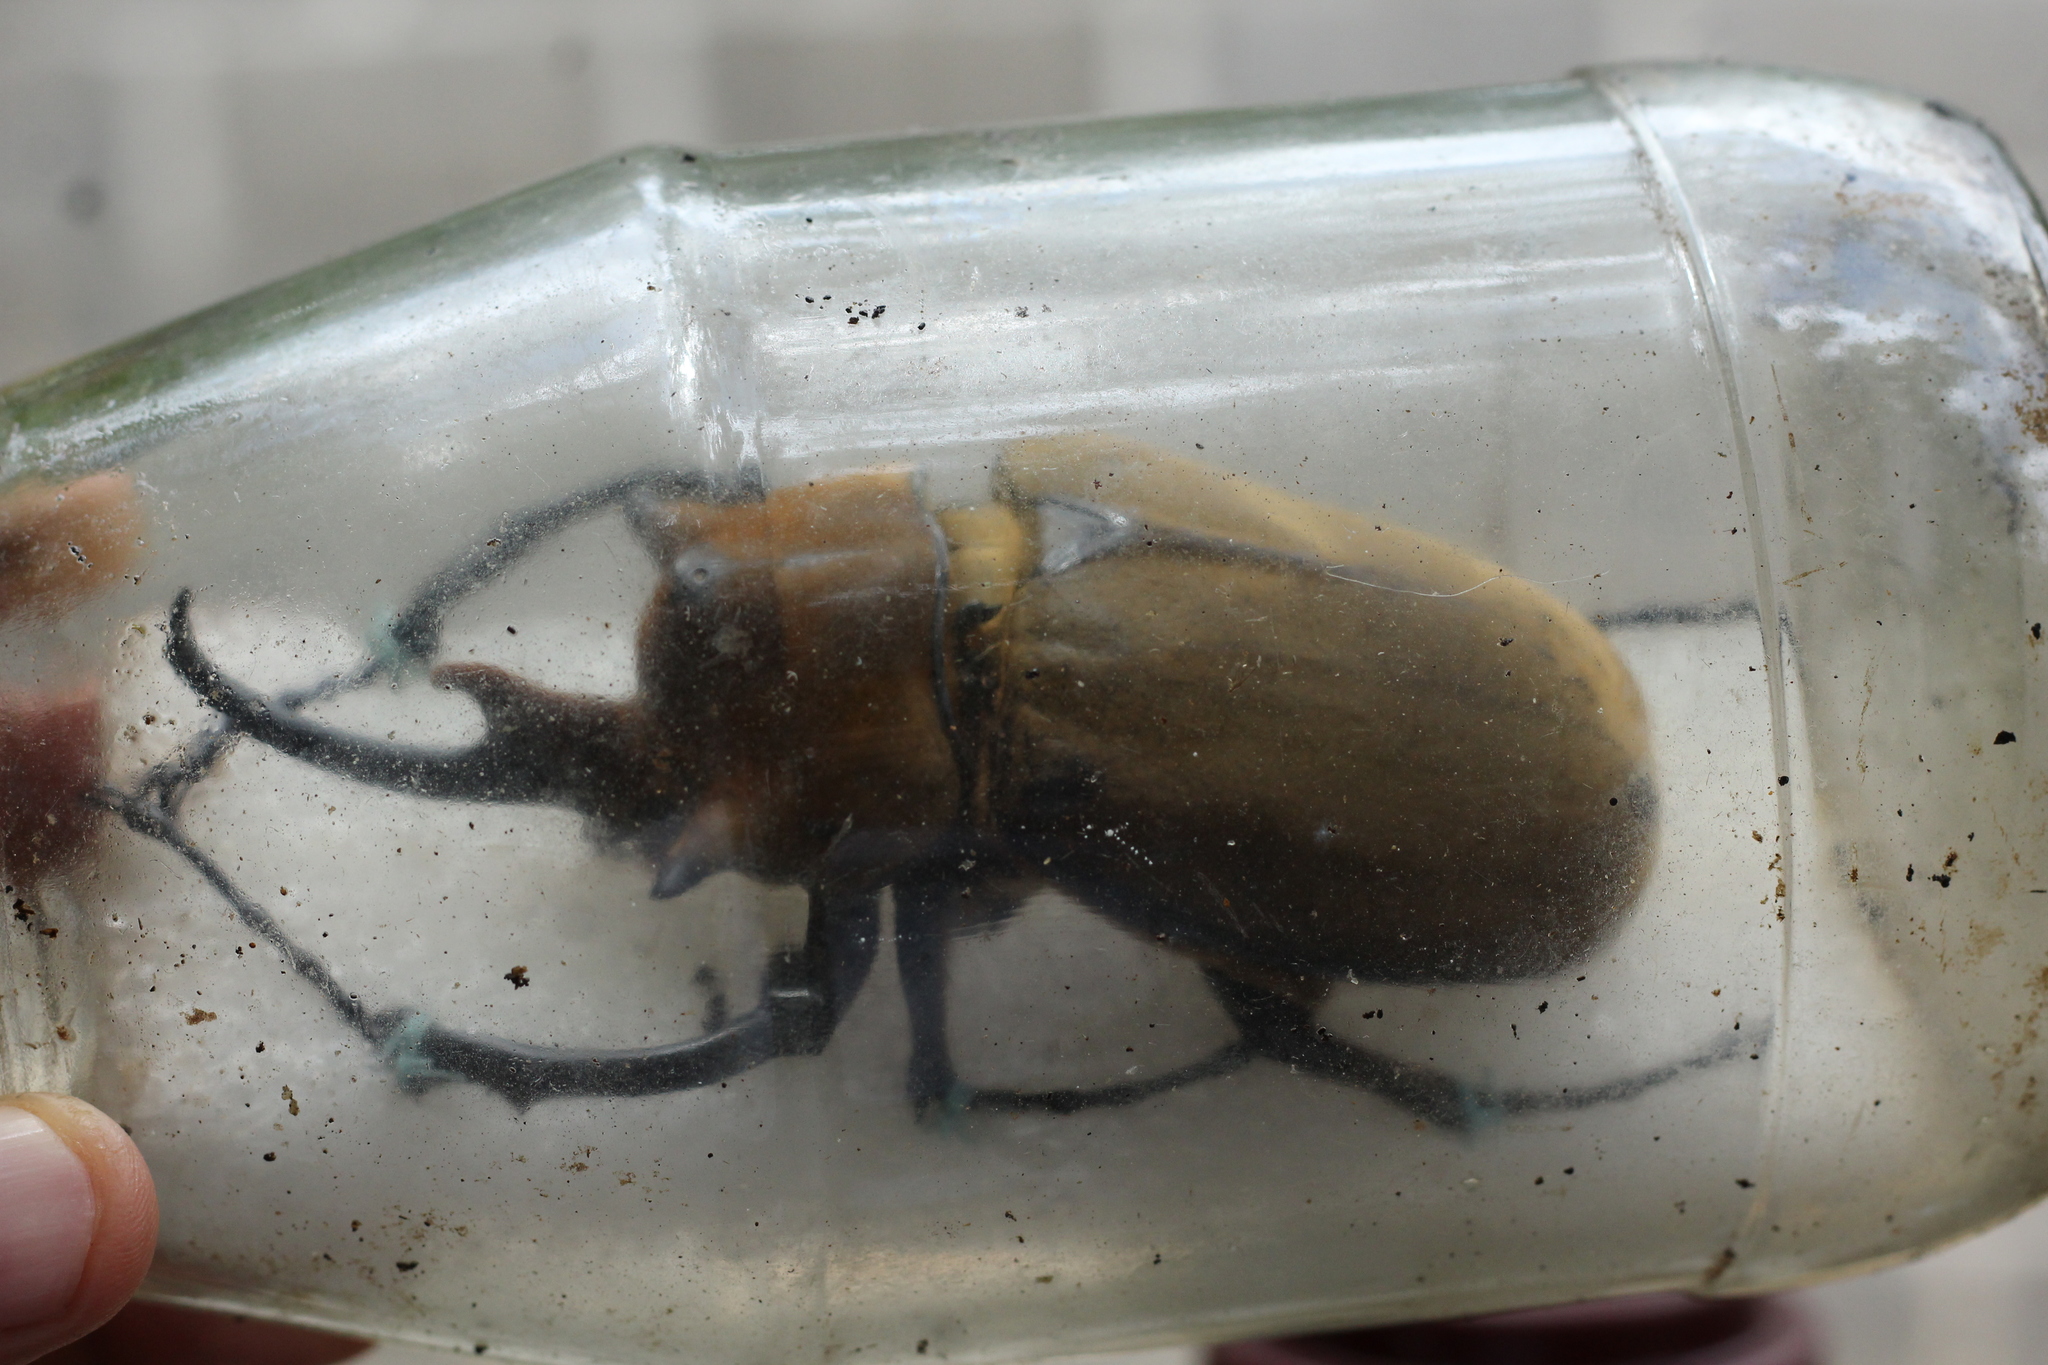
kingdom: Animalia
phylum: Arthropoda
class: Insecta
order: Coleoptera
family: Scarabaeidae
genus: Megasoma
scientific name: Megasoma elephas
